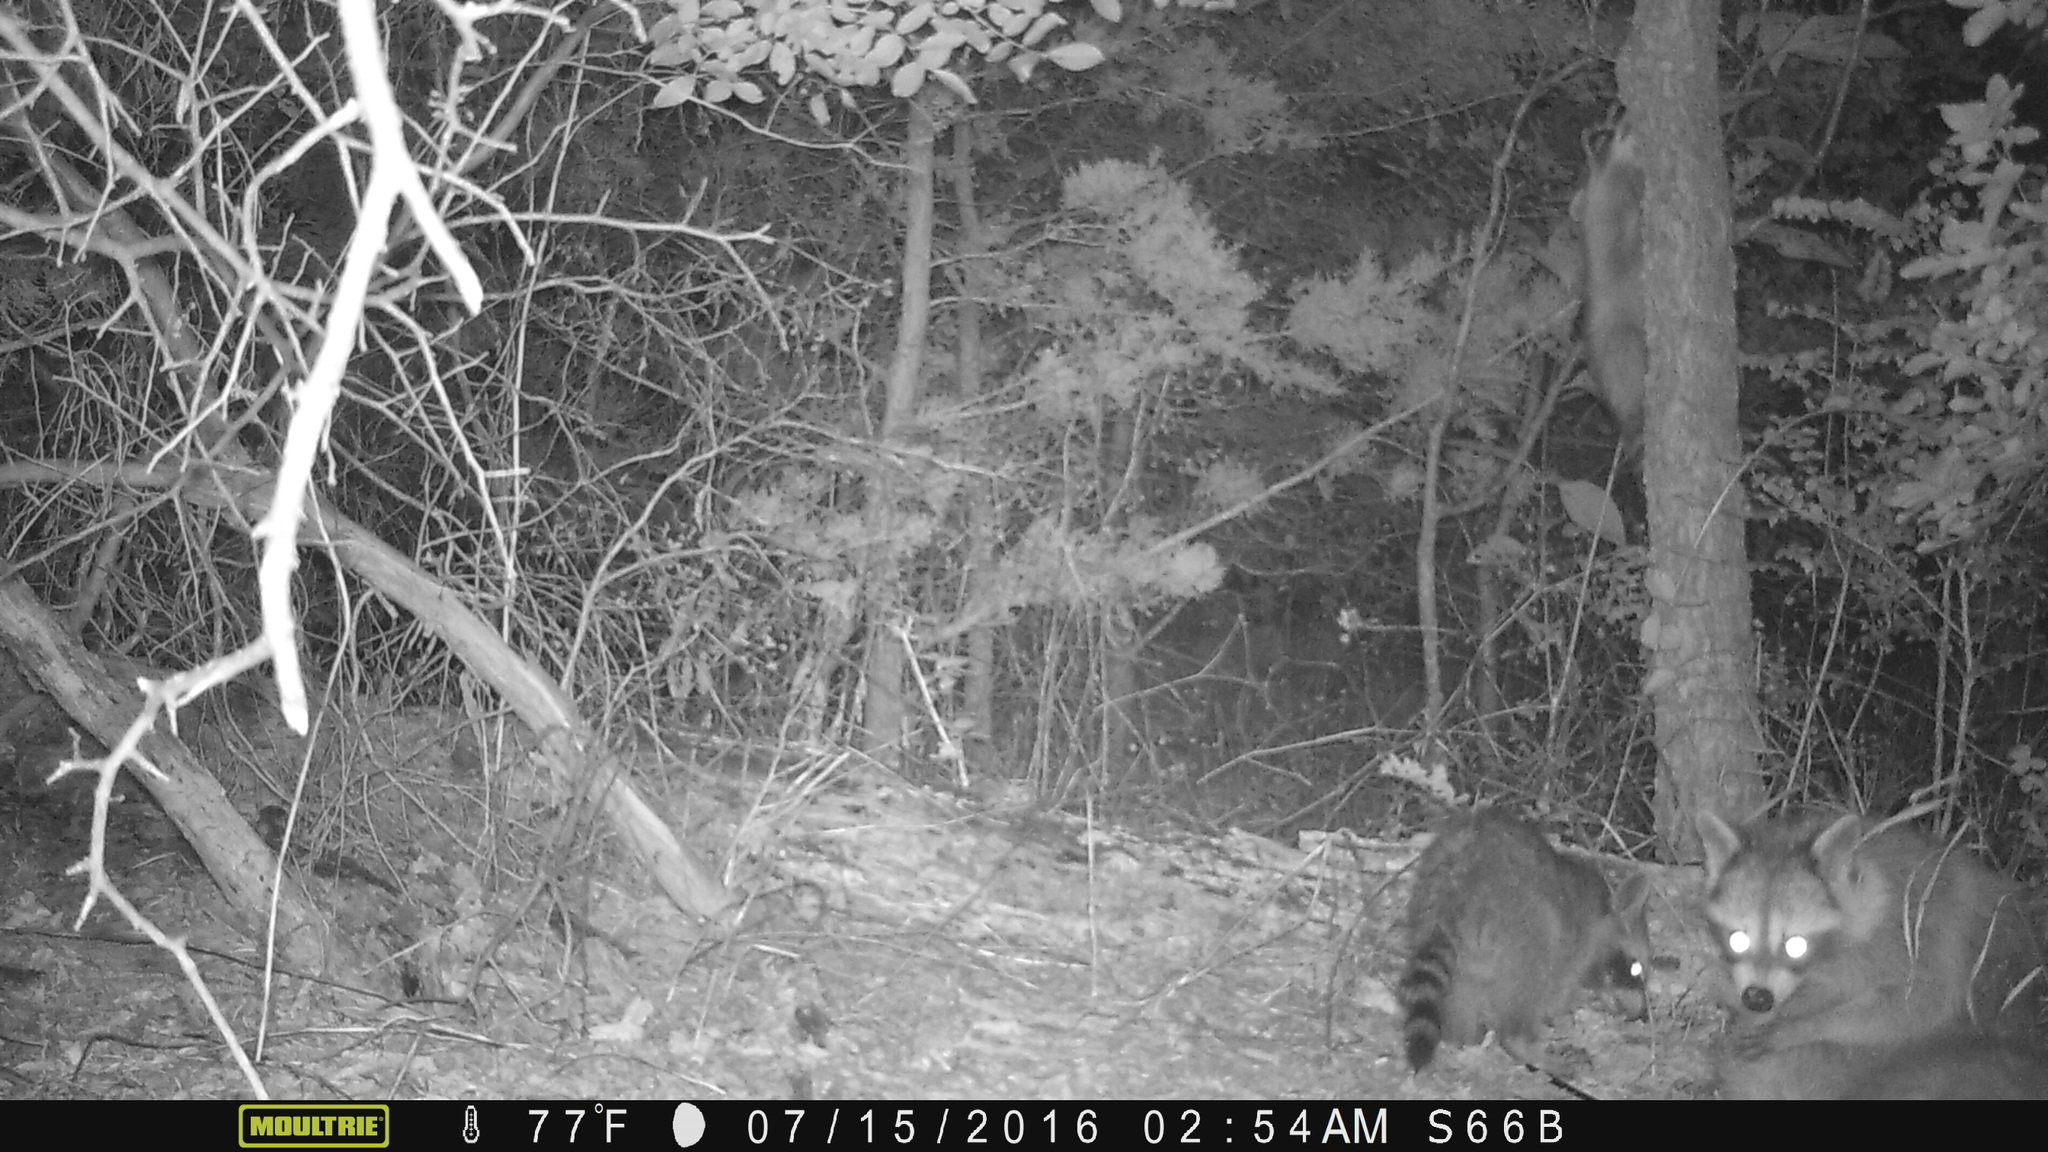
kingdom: Animalia
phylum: Chordata
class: Mammalia
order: Carnivora
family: Procyonidae
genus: Procyon
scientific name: Procyon lotor
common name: Raccoon
